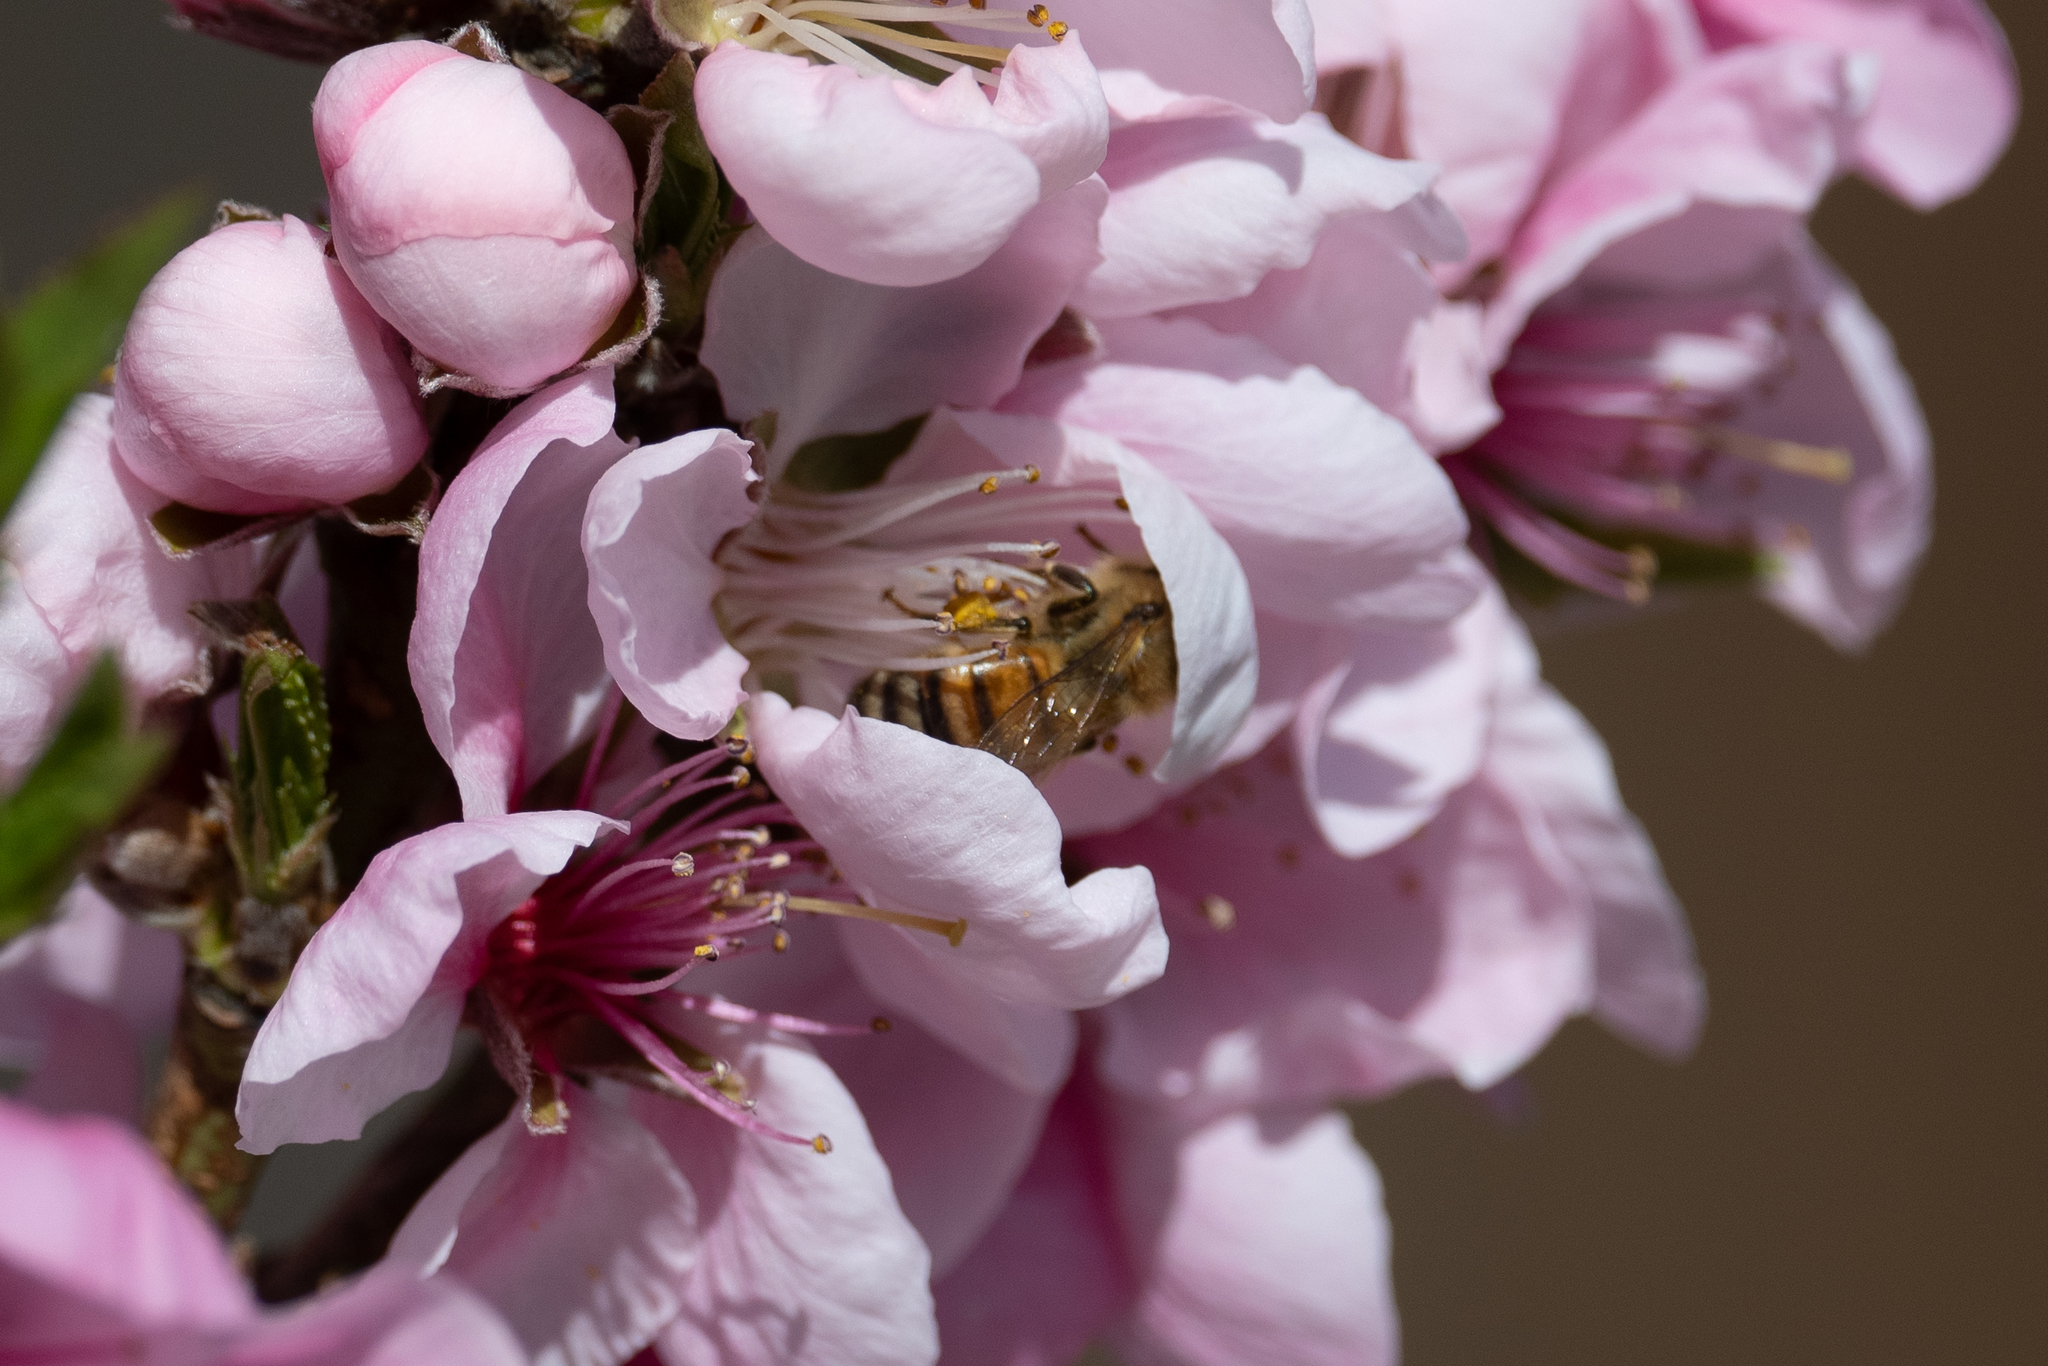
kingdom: Animalia
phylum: Arthropoda
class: Insecta
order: Hymenoptera
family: Apidae
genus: Apis
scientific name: Apis mellifera
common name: Honey bee
